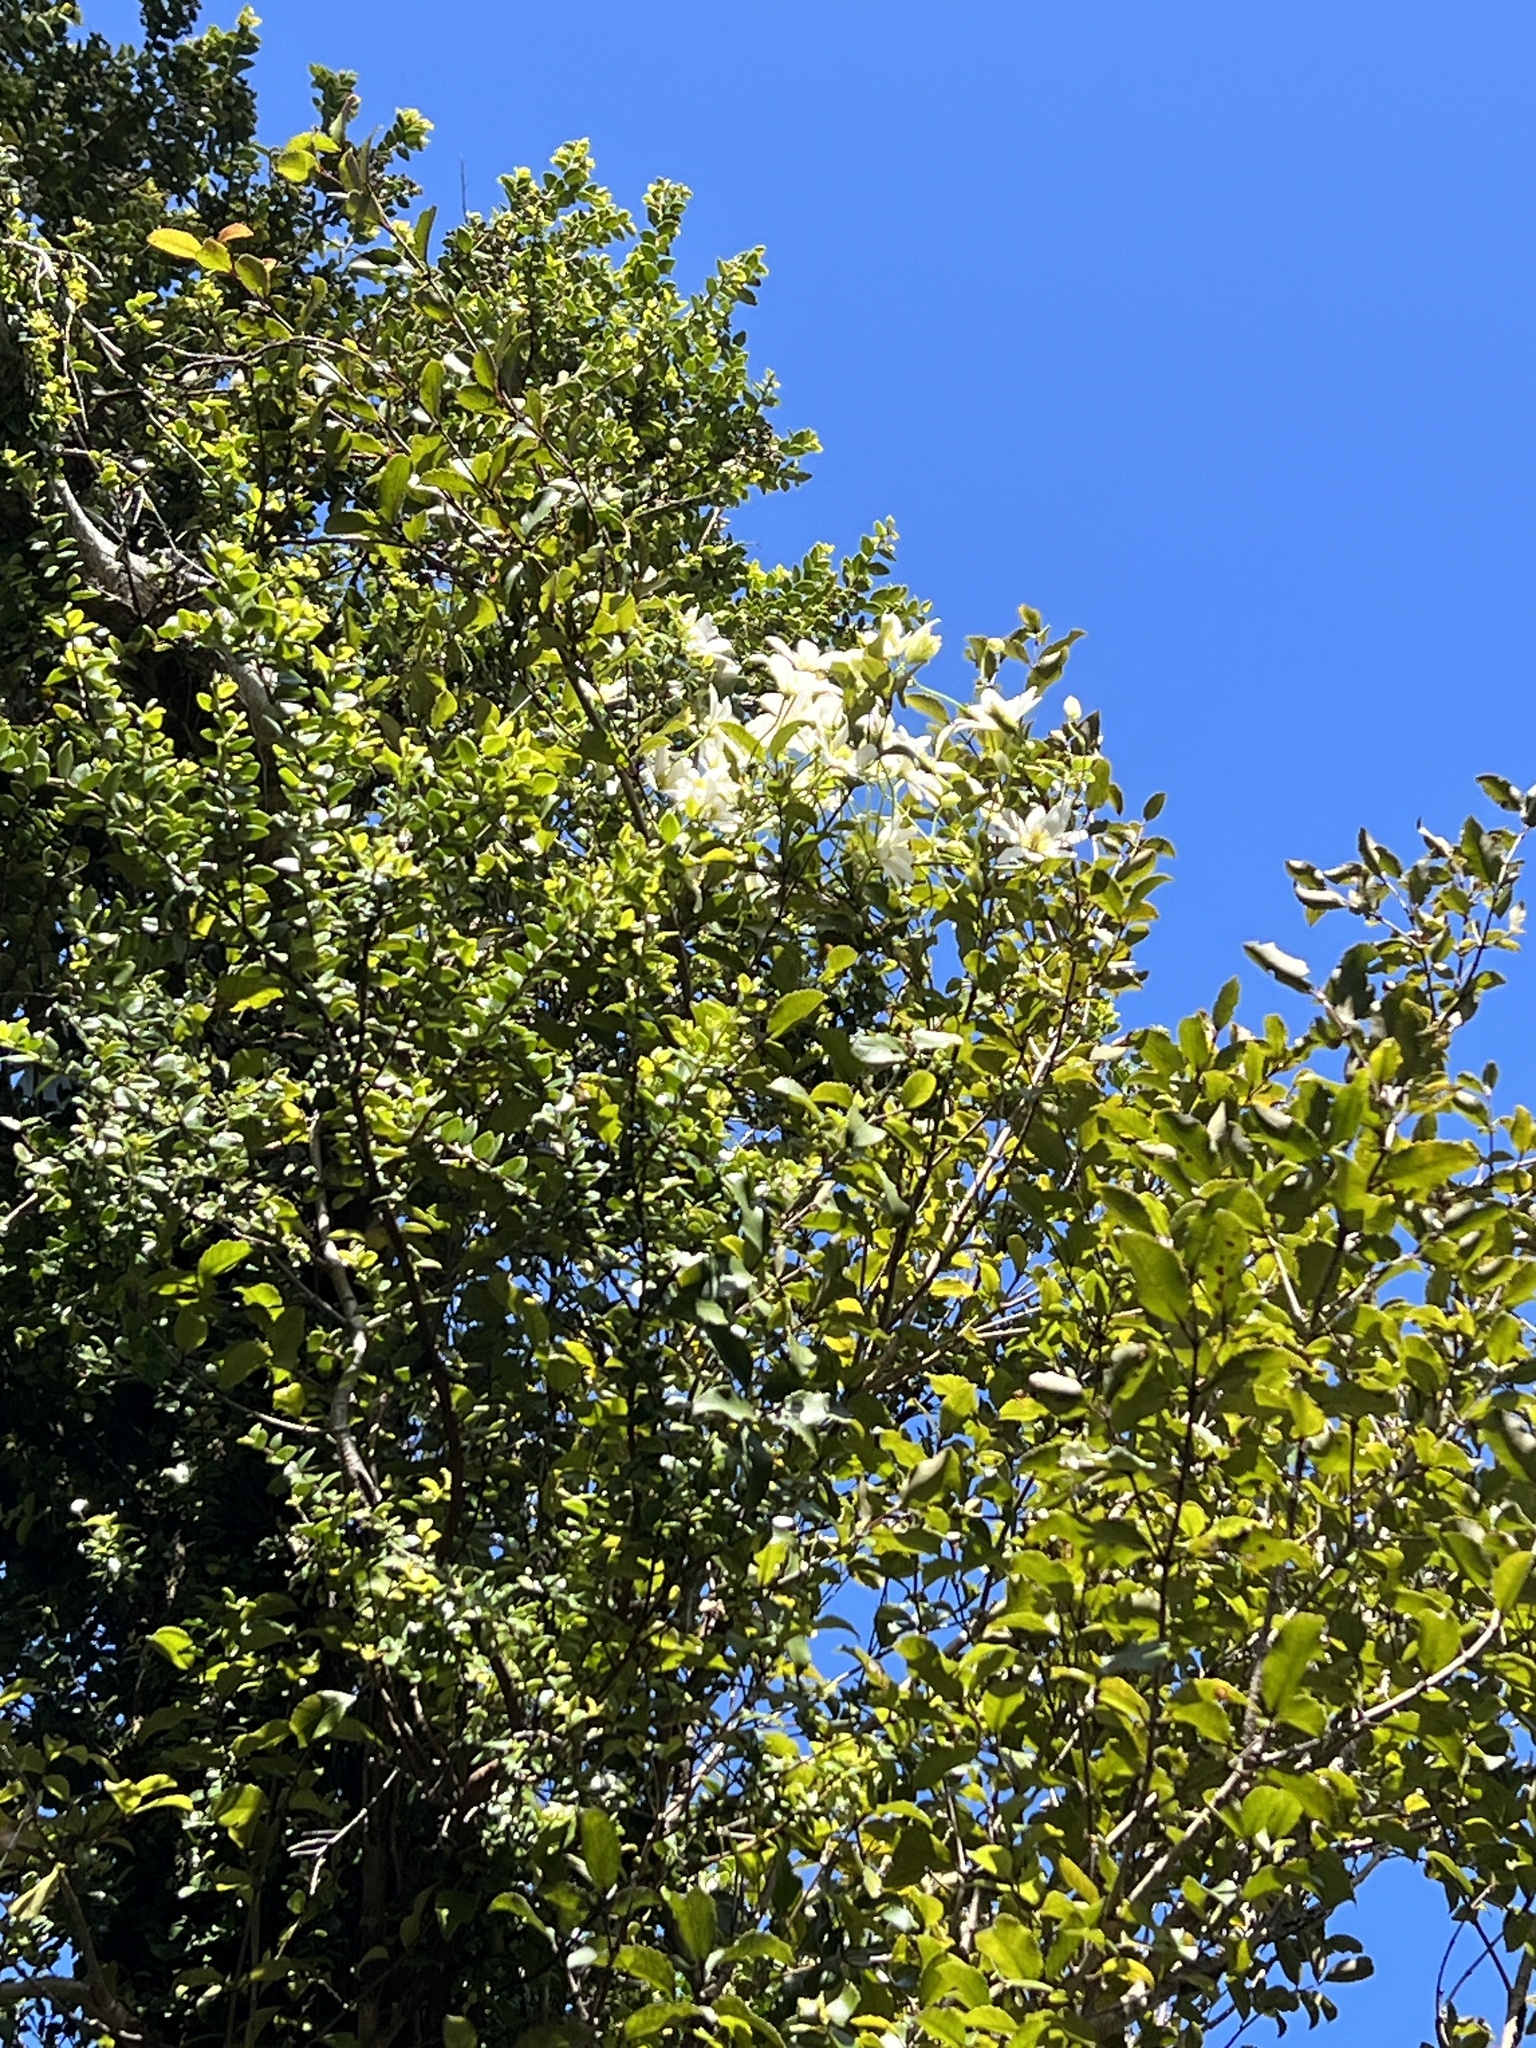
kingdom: Plantae
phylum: Tracheophyta
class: Magnoliopsida
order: Ranunculales
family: Ranunculaceae
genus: Clematis
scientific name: Clematis paniculata
